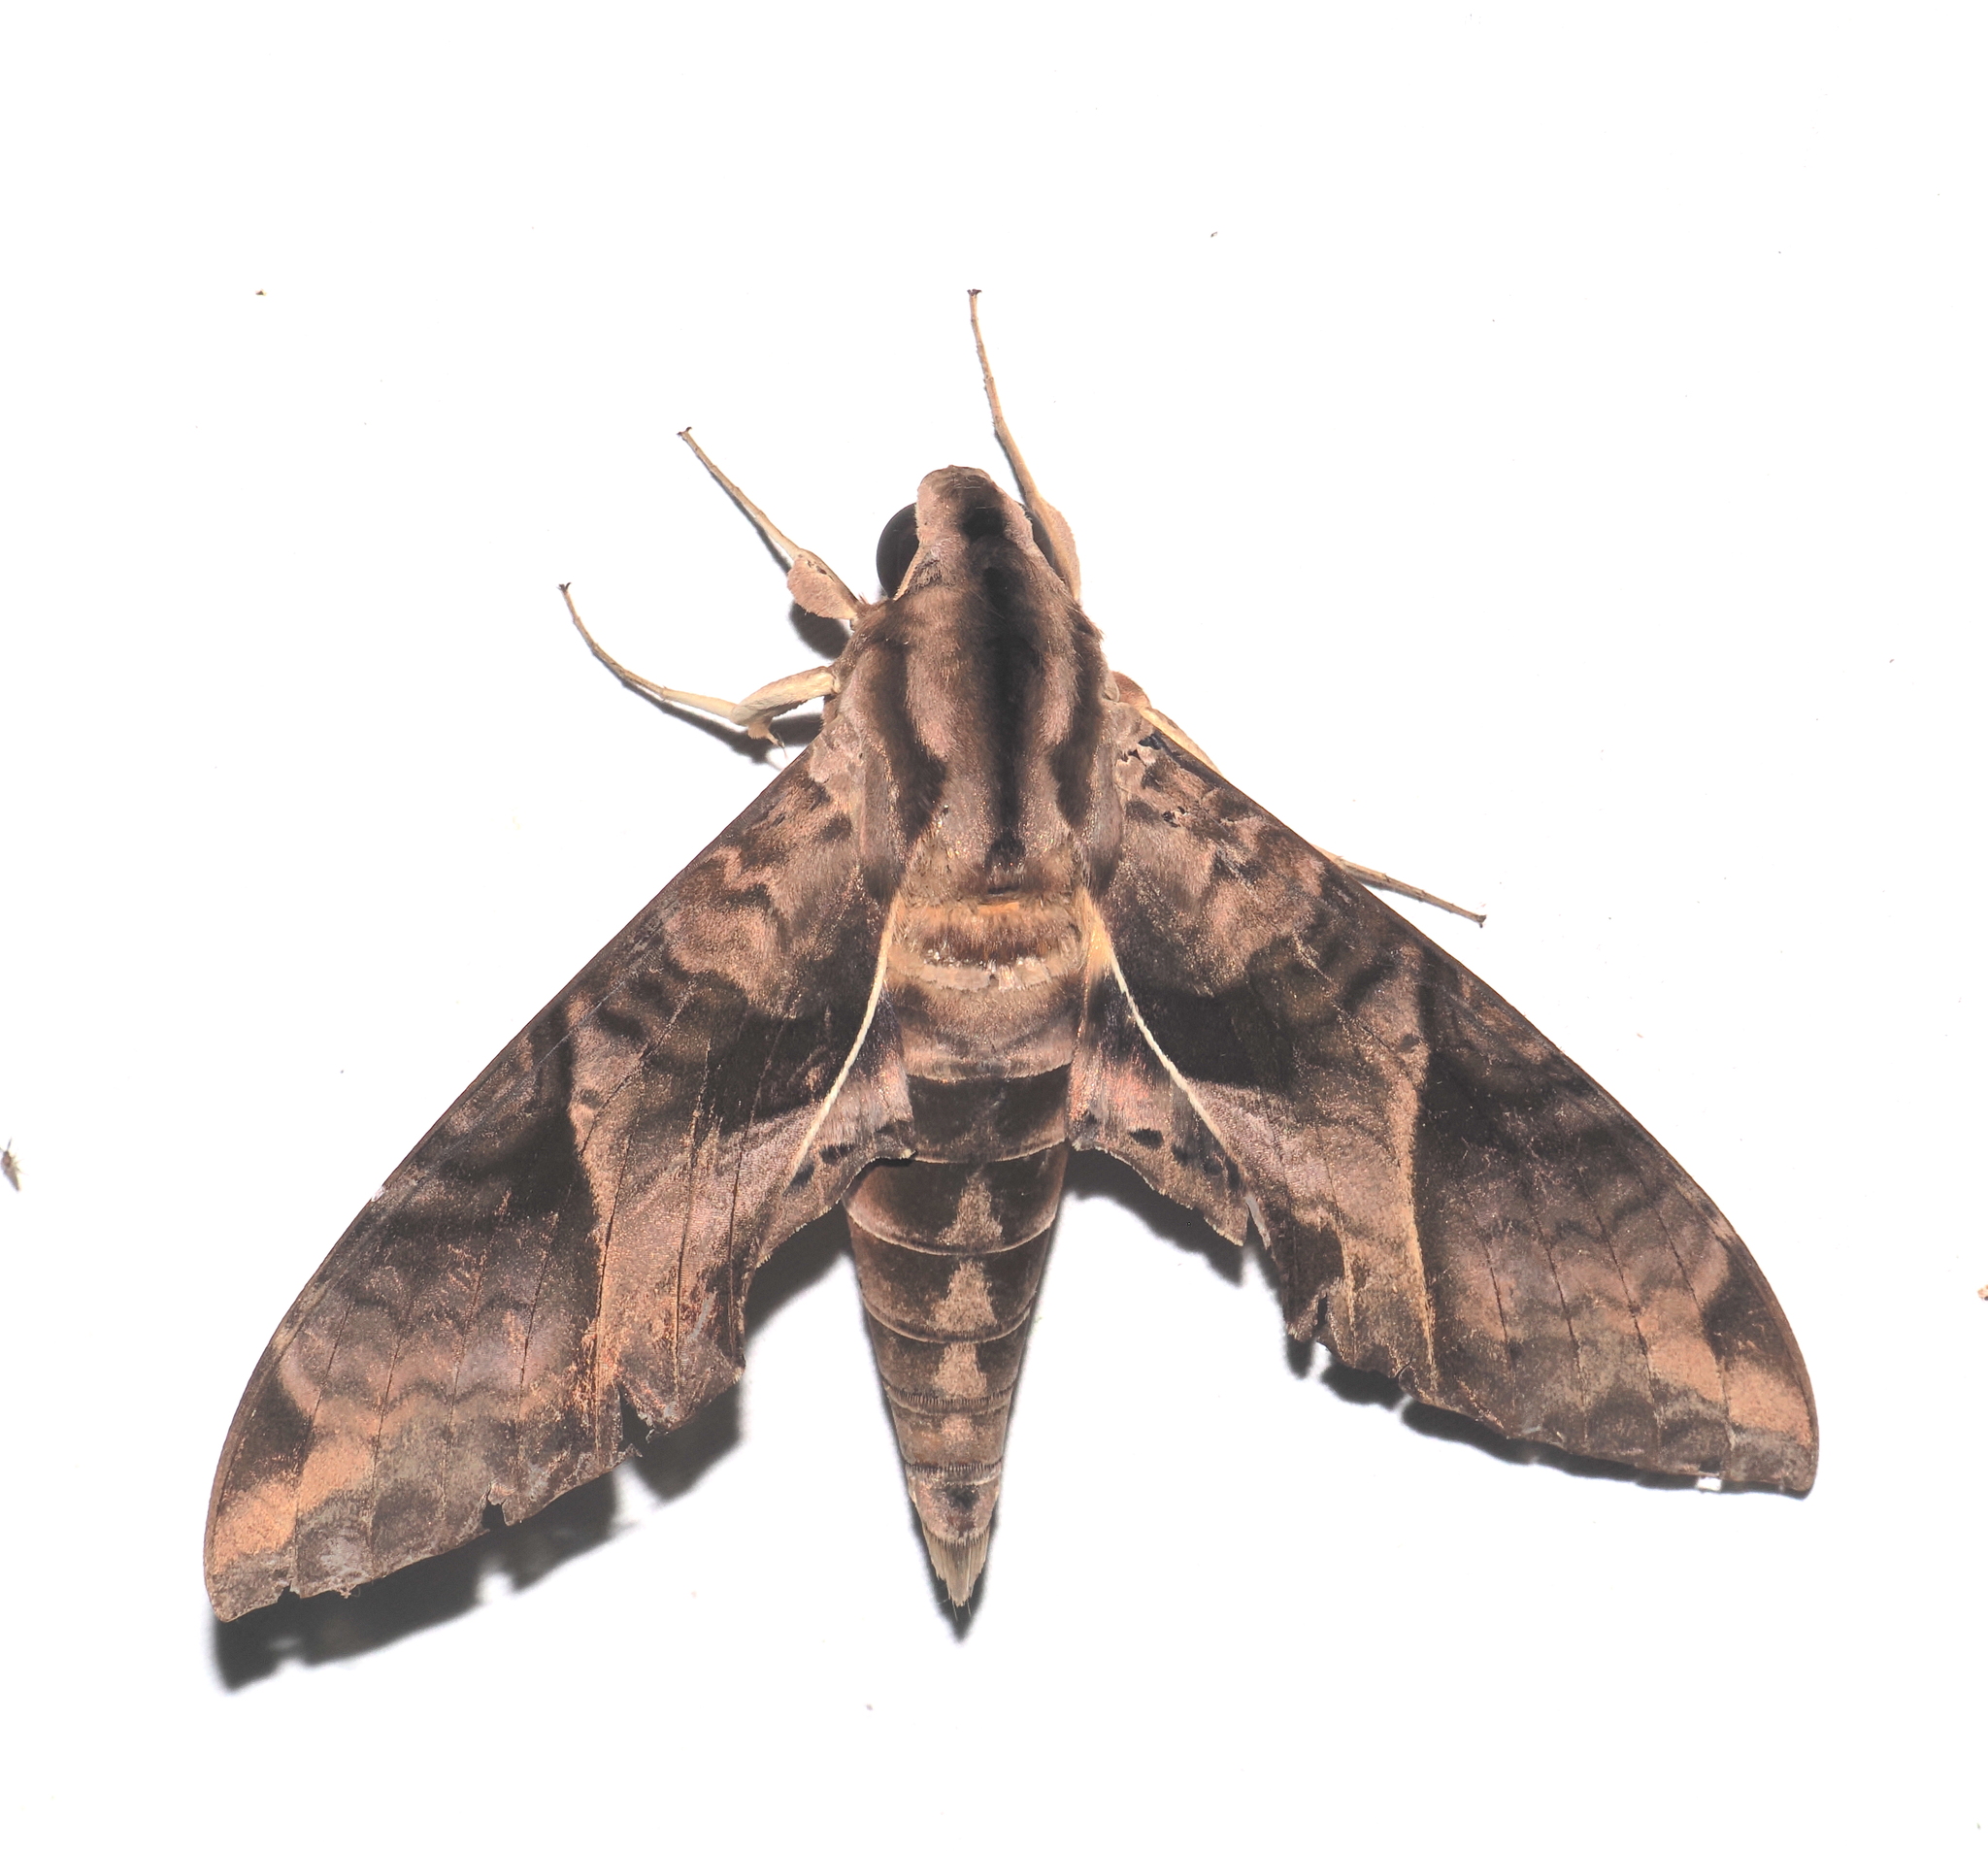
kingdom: Animalia
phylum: Arthropoda
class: Insecta
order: Lepidoptera
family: Sphingidae
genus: Eumorpha
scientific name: Eumorpha anchemolus
